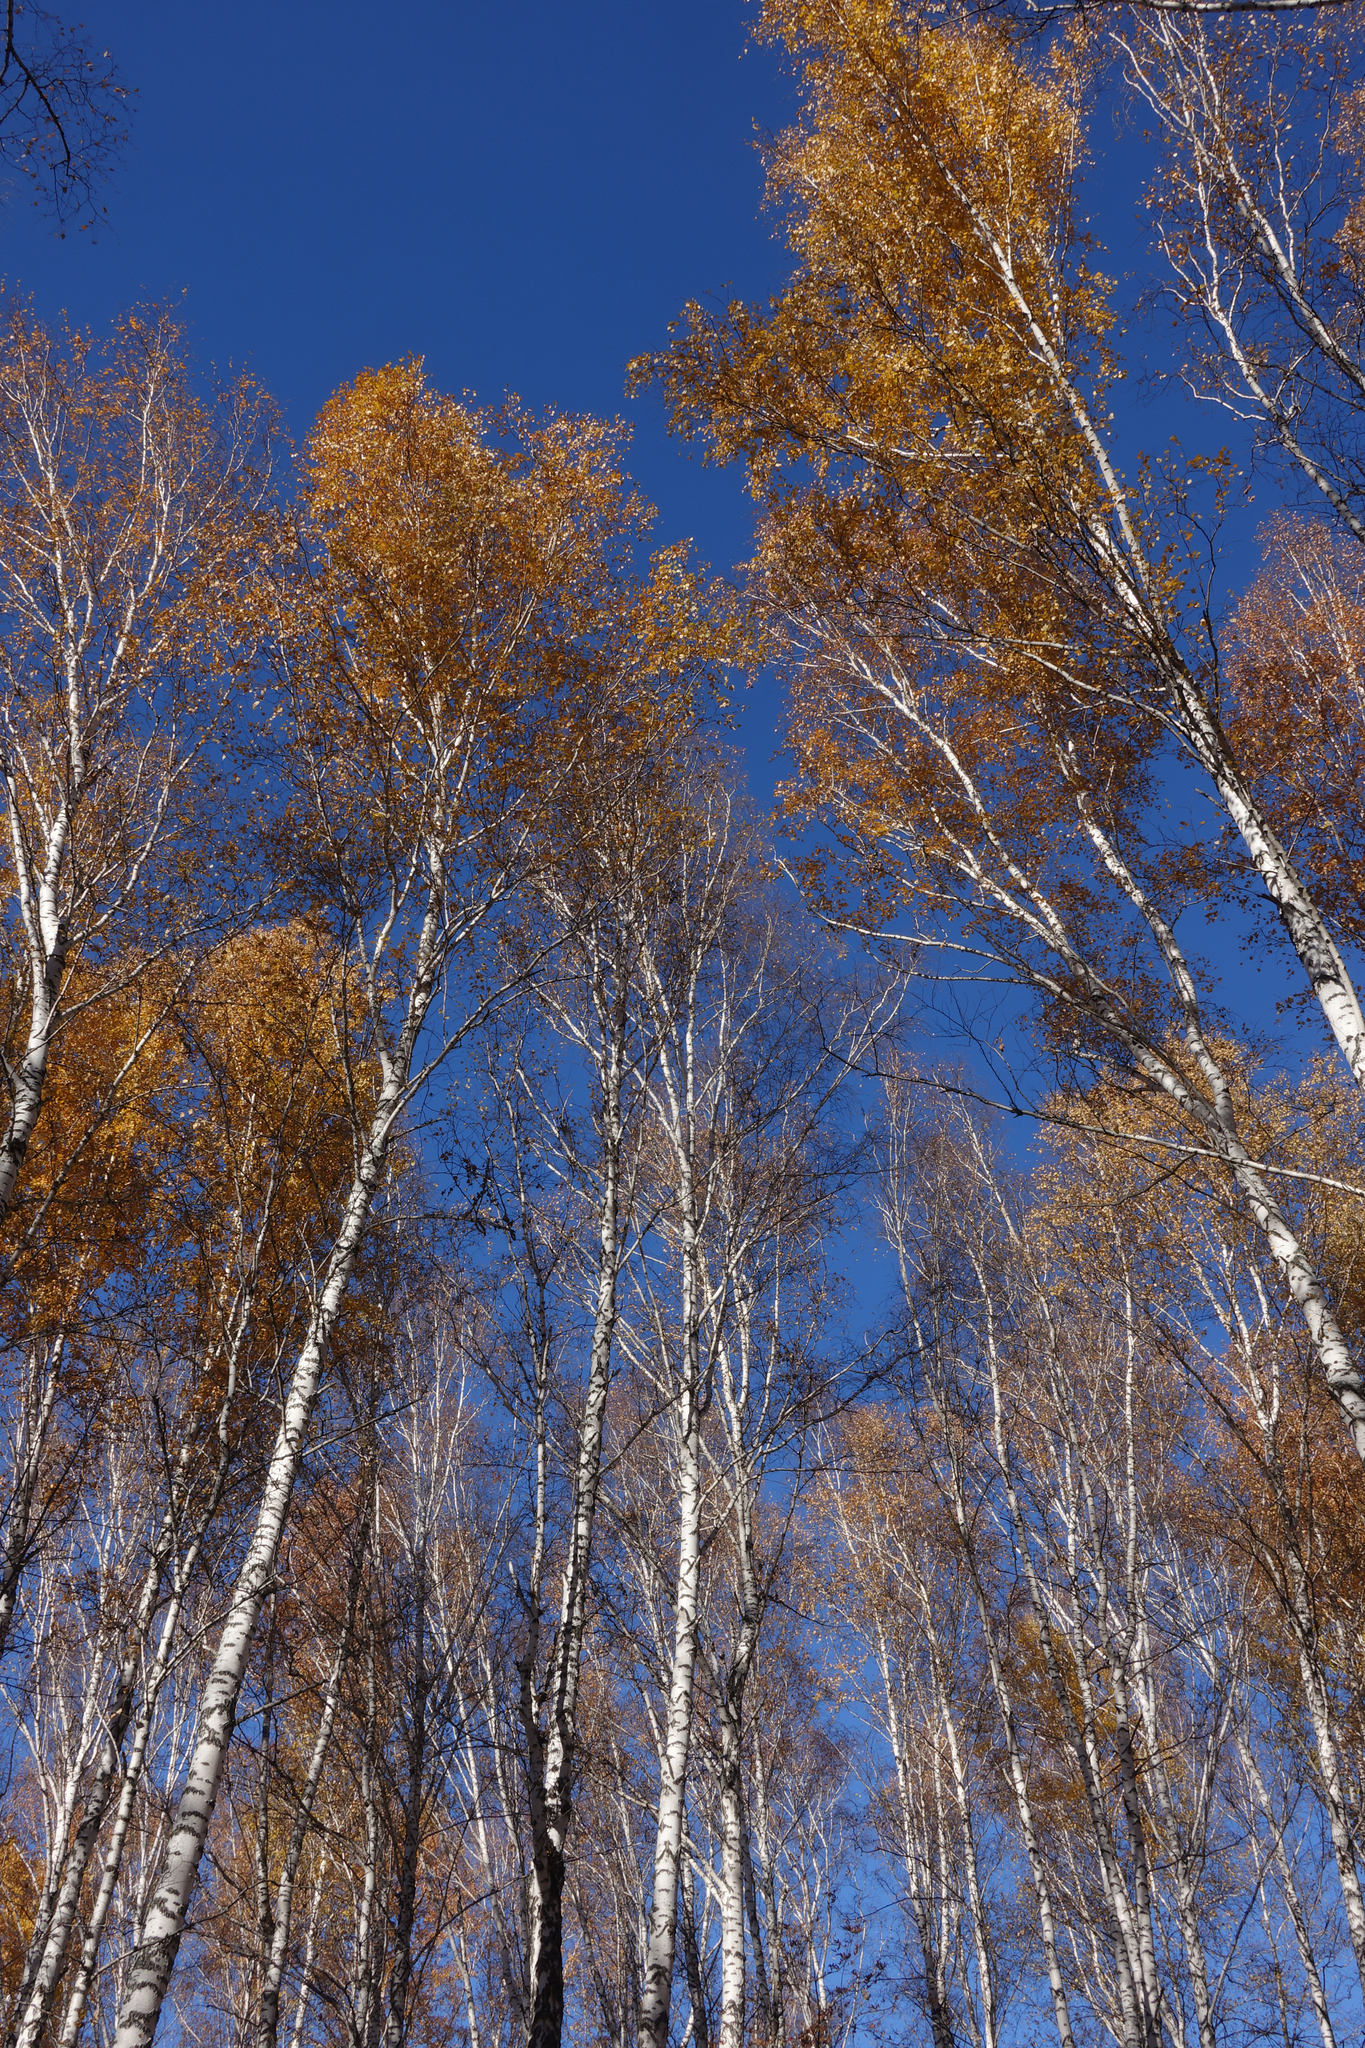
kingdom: Plantae
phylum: Tracheophyta
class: Magnoliopsida
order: Fagales
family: Betulaceae
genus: Betula
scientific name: Betula pendula
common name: Silver birch
